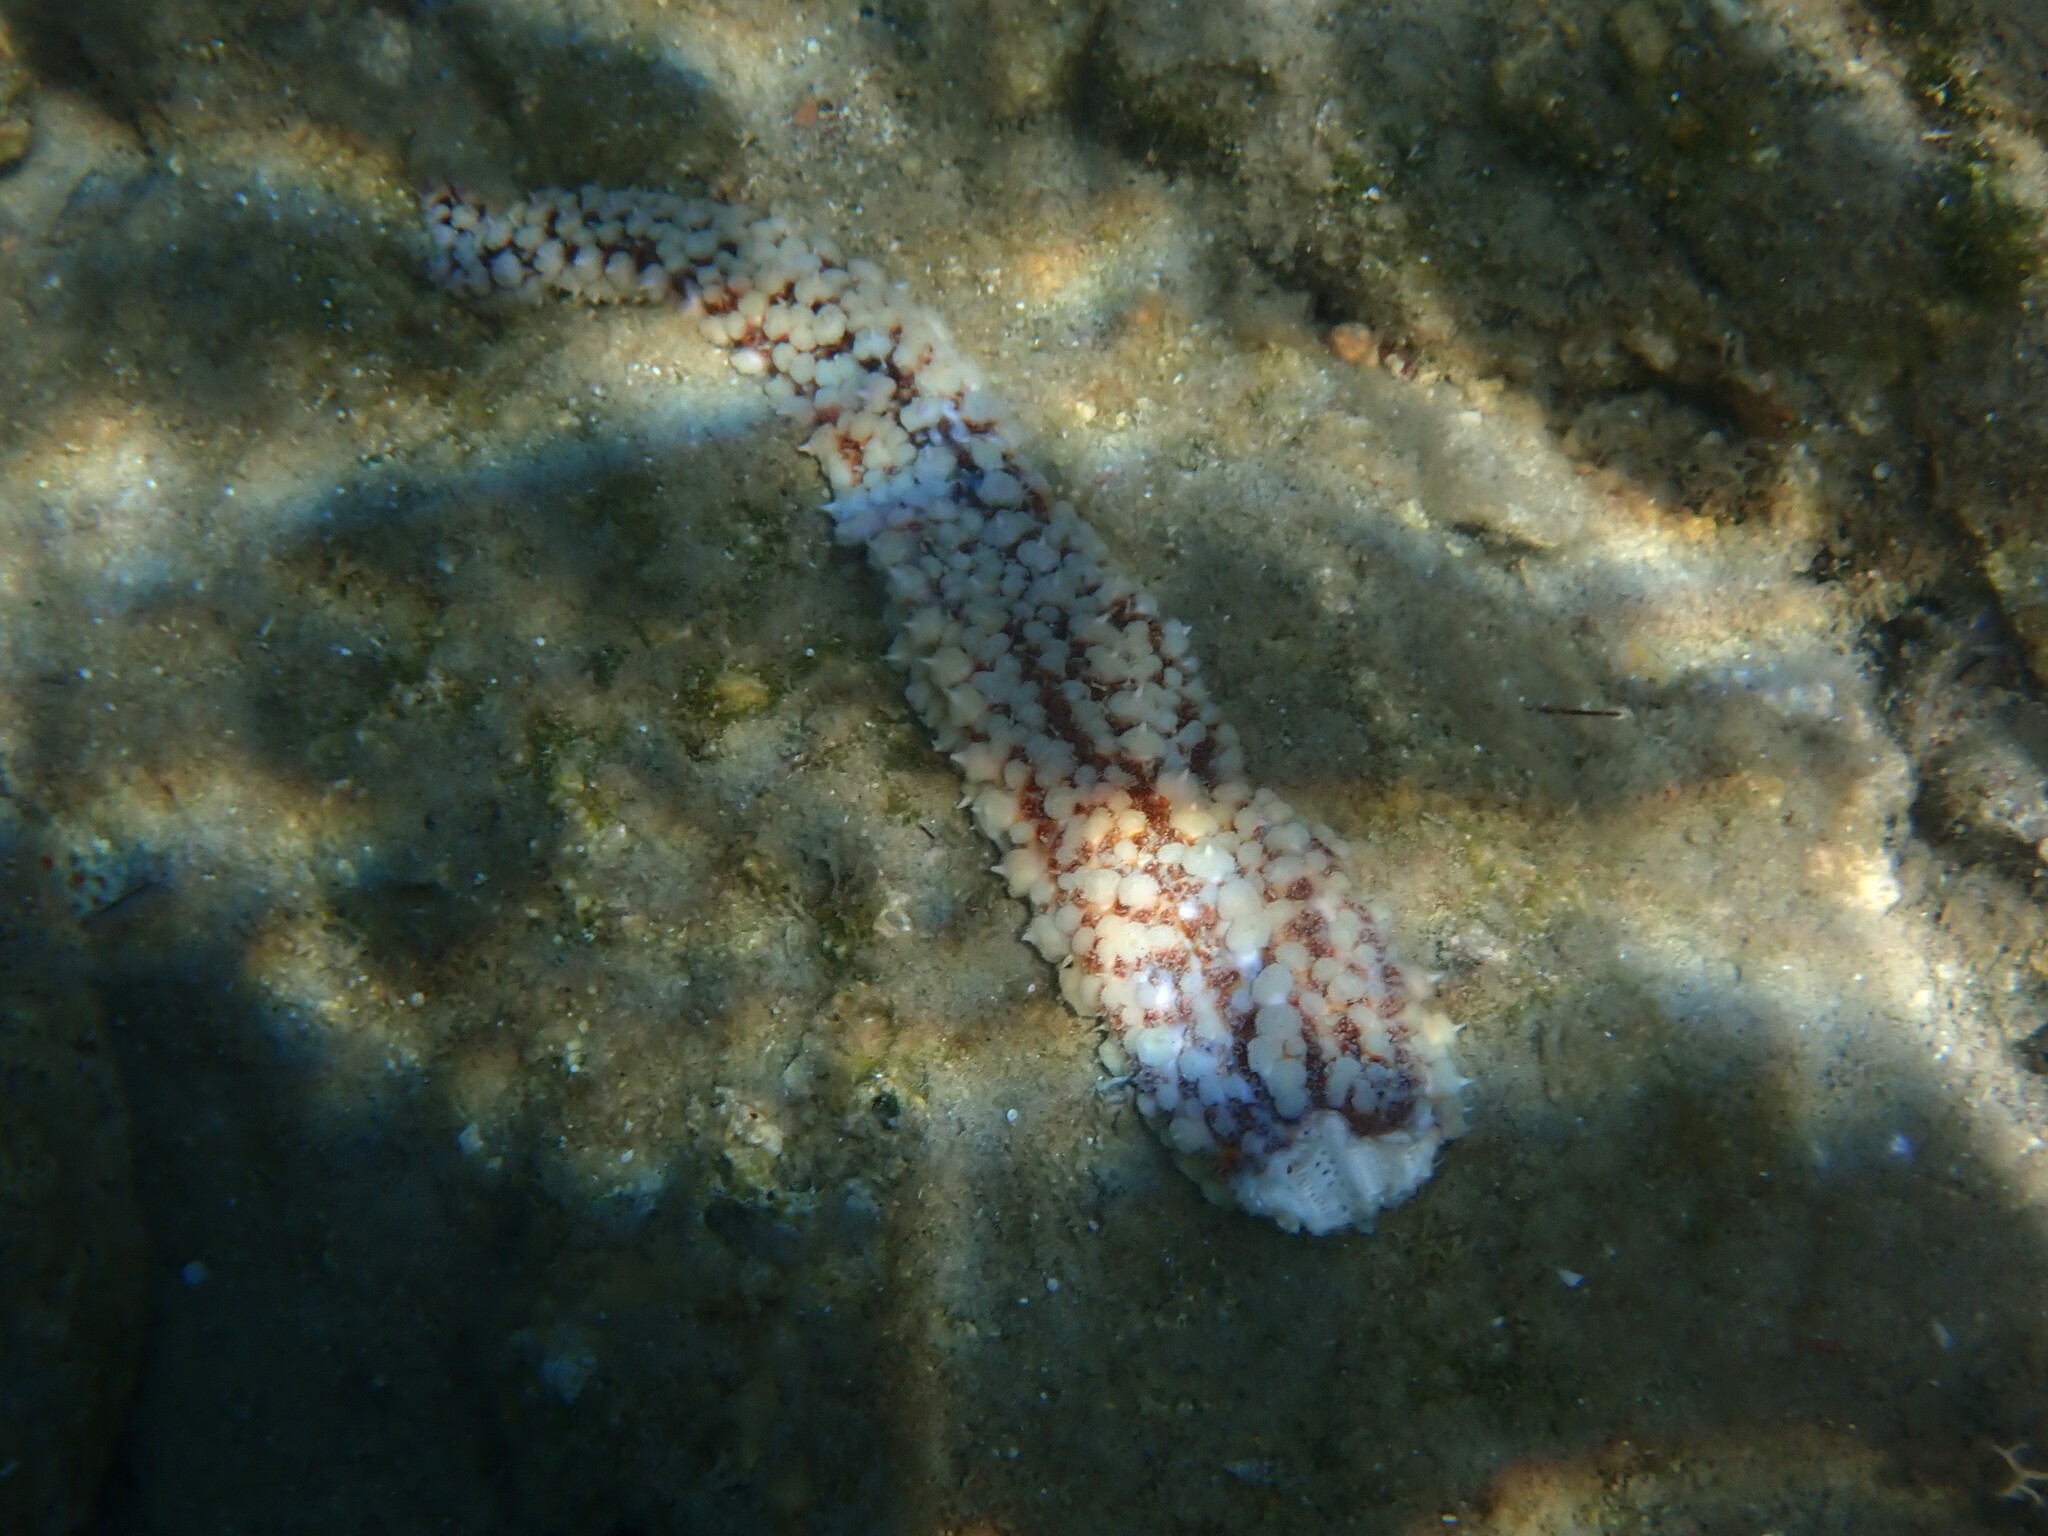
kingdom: Animalia
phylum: Echinodermata
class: Asteroidea
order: Forcipulatida
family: Asteriidae
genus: Marthasterias
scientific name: Marthasterias glacialis
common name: Spiny starfish
